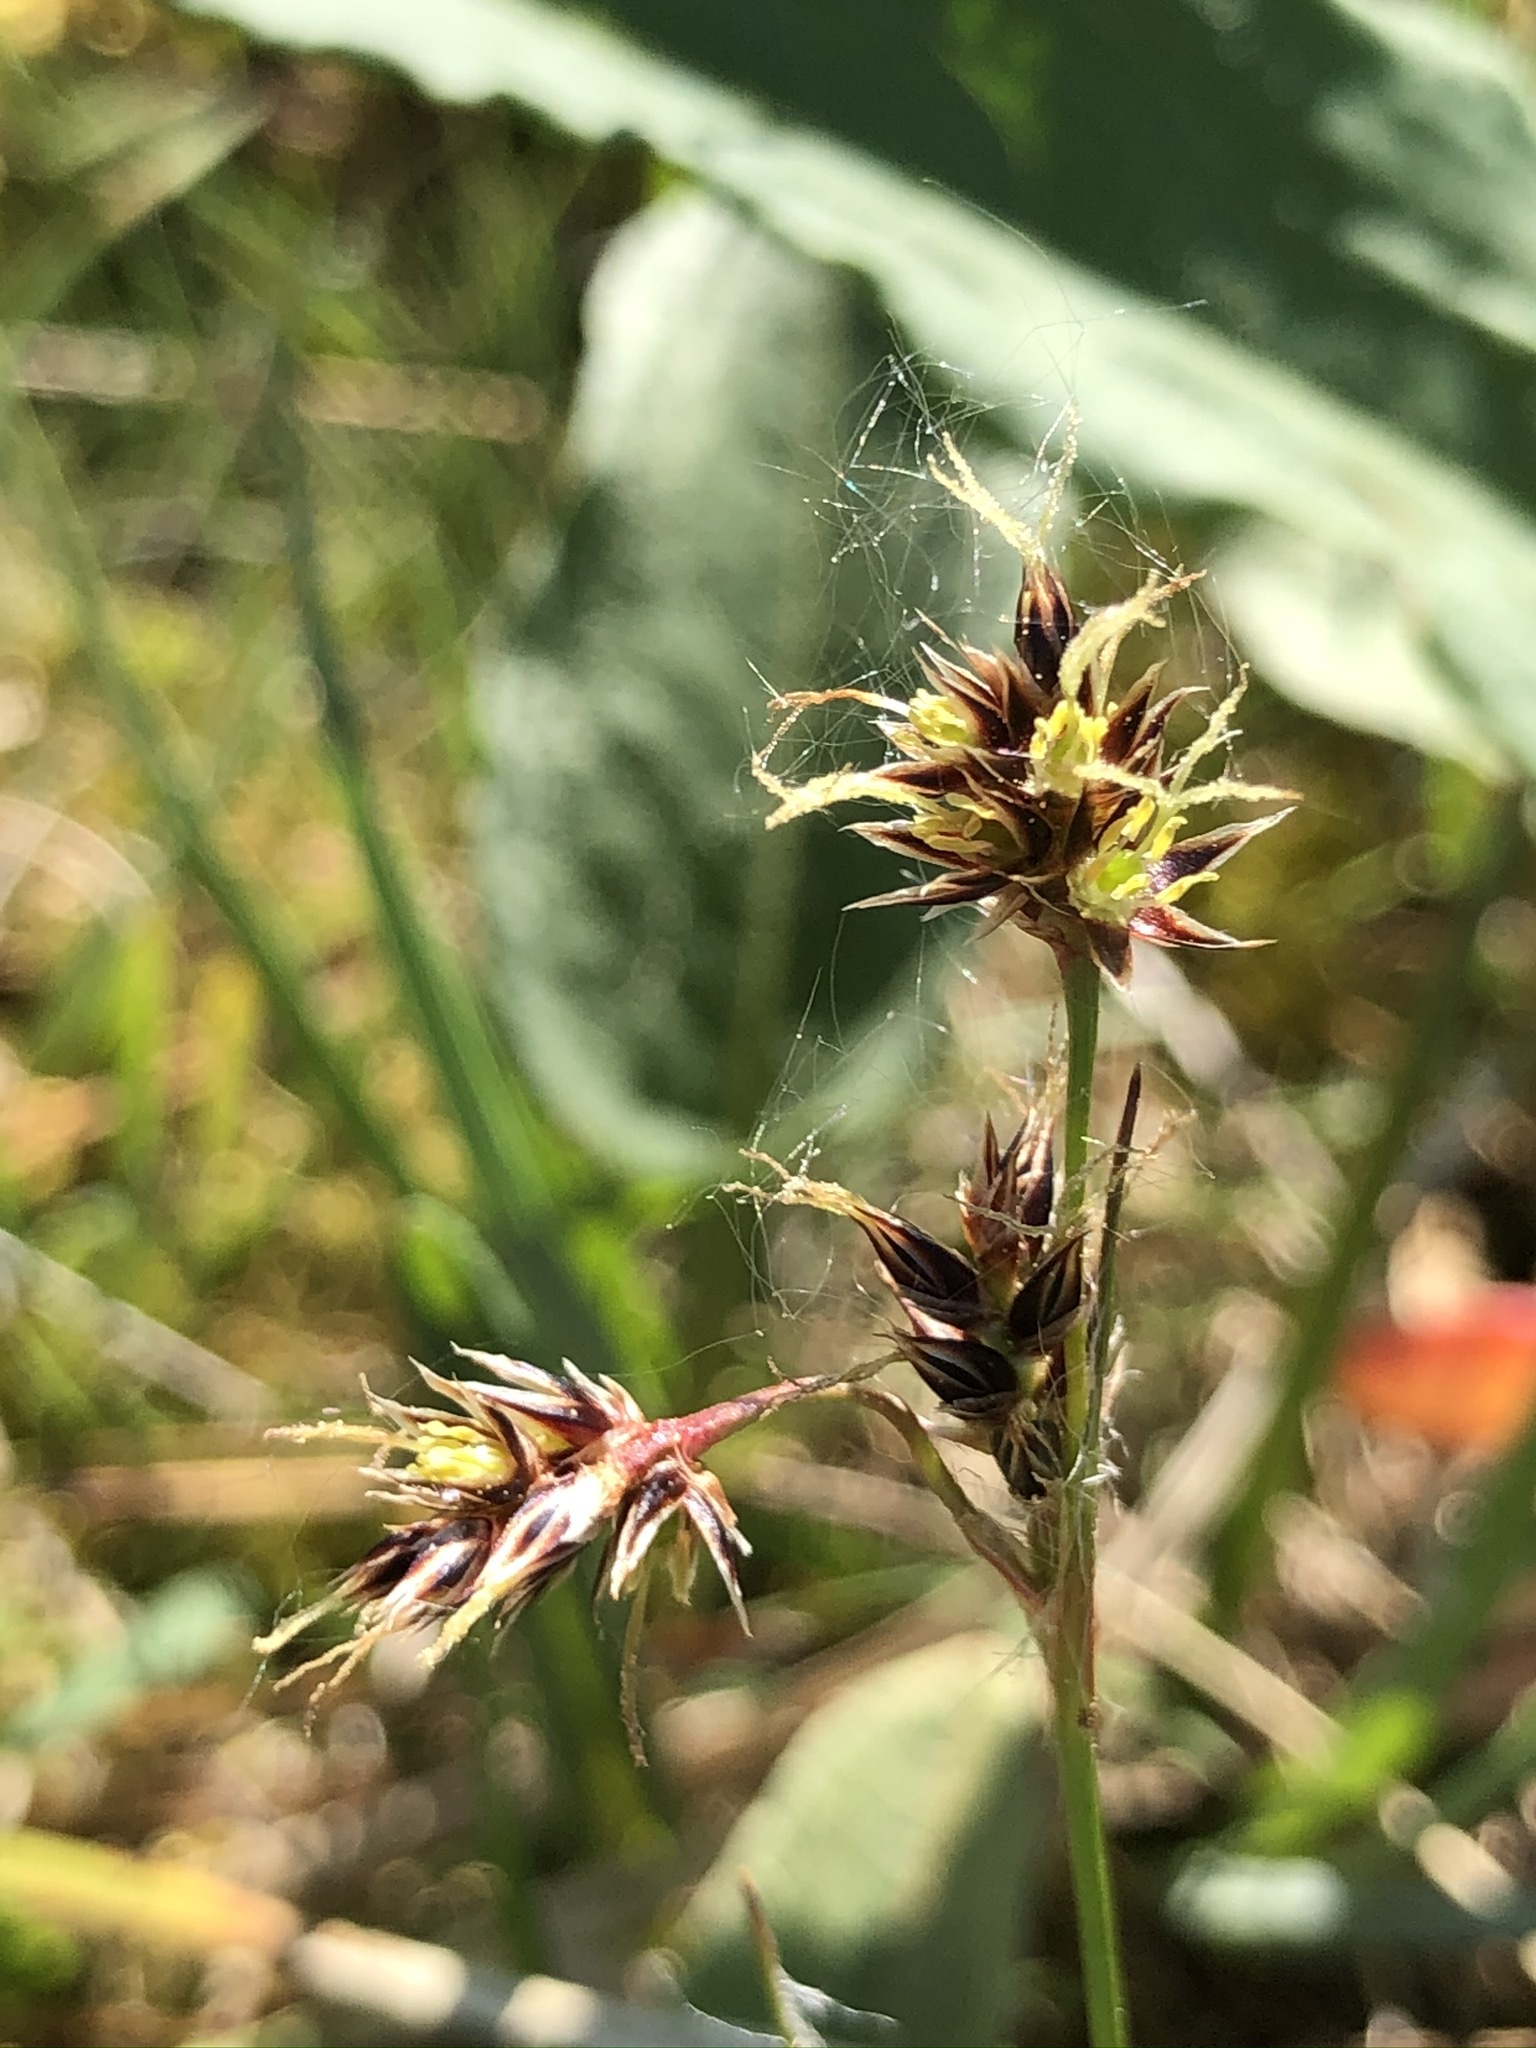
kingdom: Plantae
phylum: Tracheophyta
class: Liliopsida
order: Poales
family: Juncaceae
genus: Luzula
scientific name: Luzula campestris
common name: Field wood-rush
